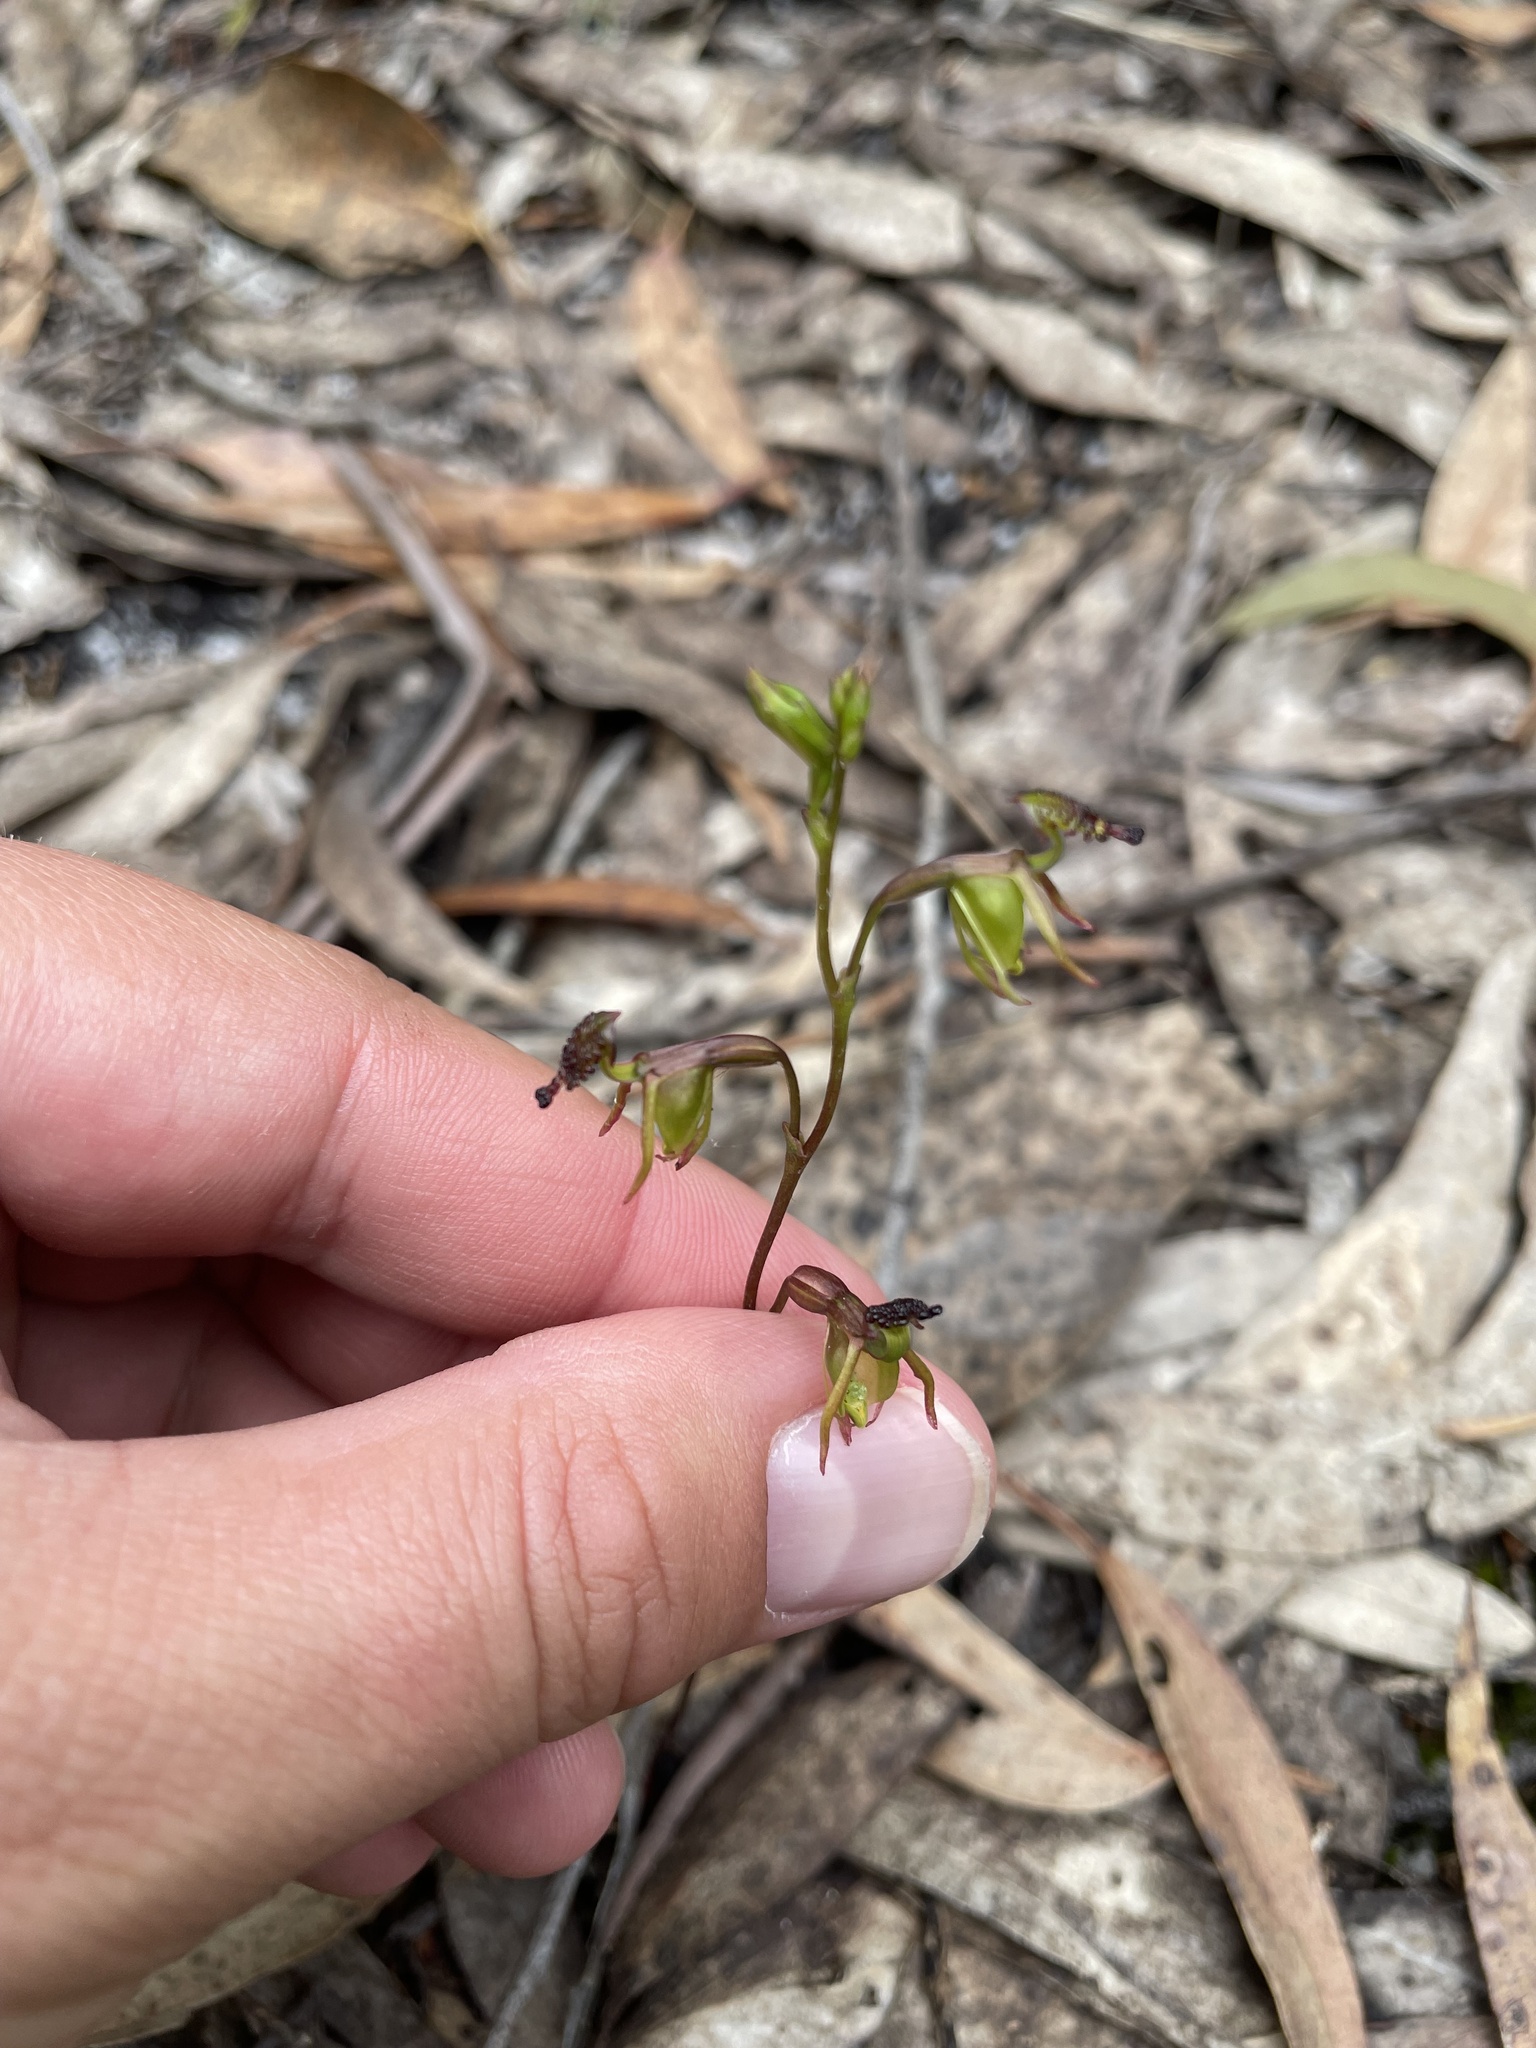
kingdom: Plantae
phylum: Tracheophyta
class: Liliopsida
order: Asparagales
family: Orchidaceae
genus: Caleana
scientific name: Caleana minor
